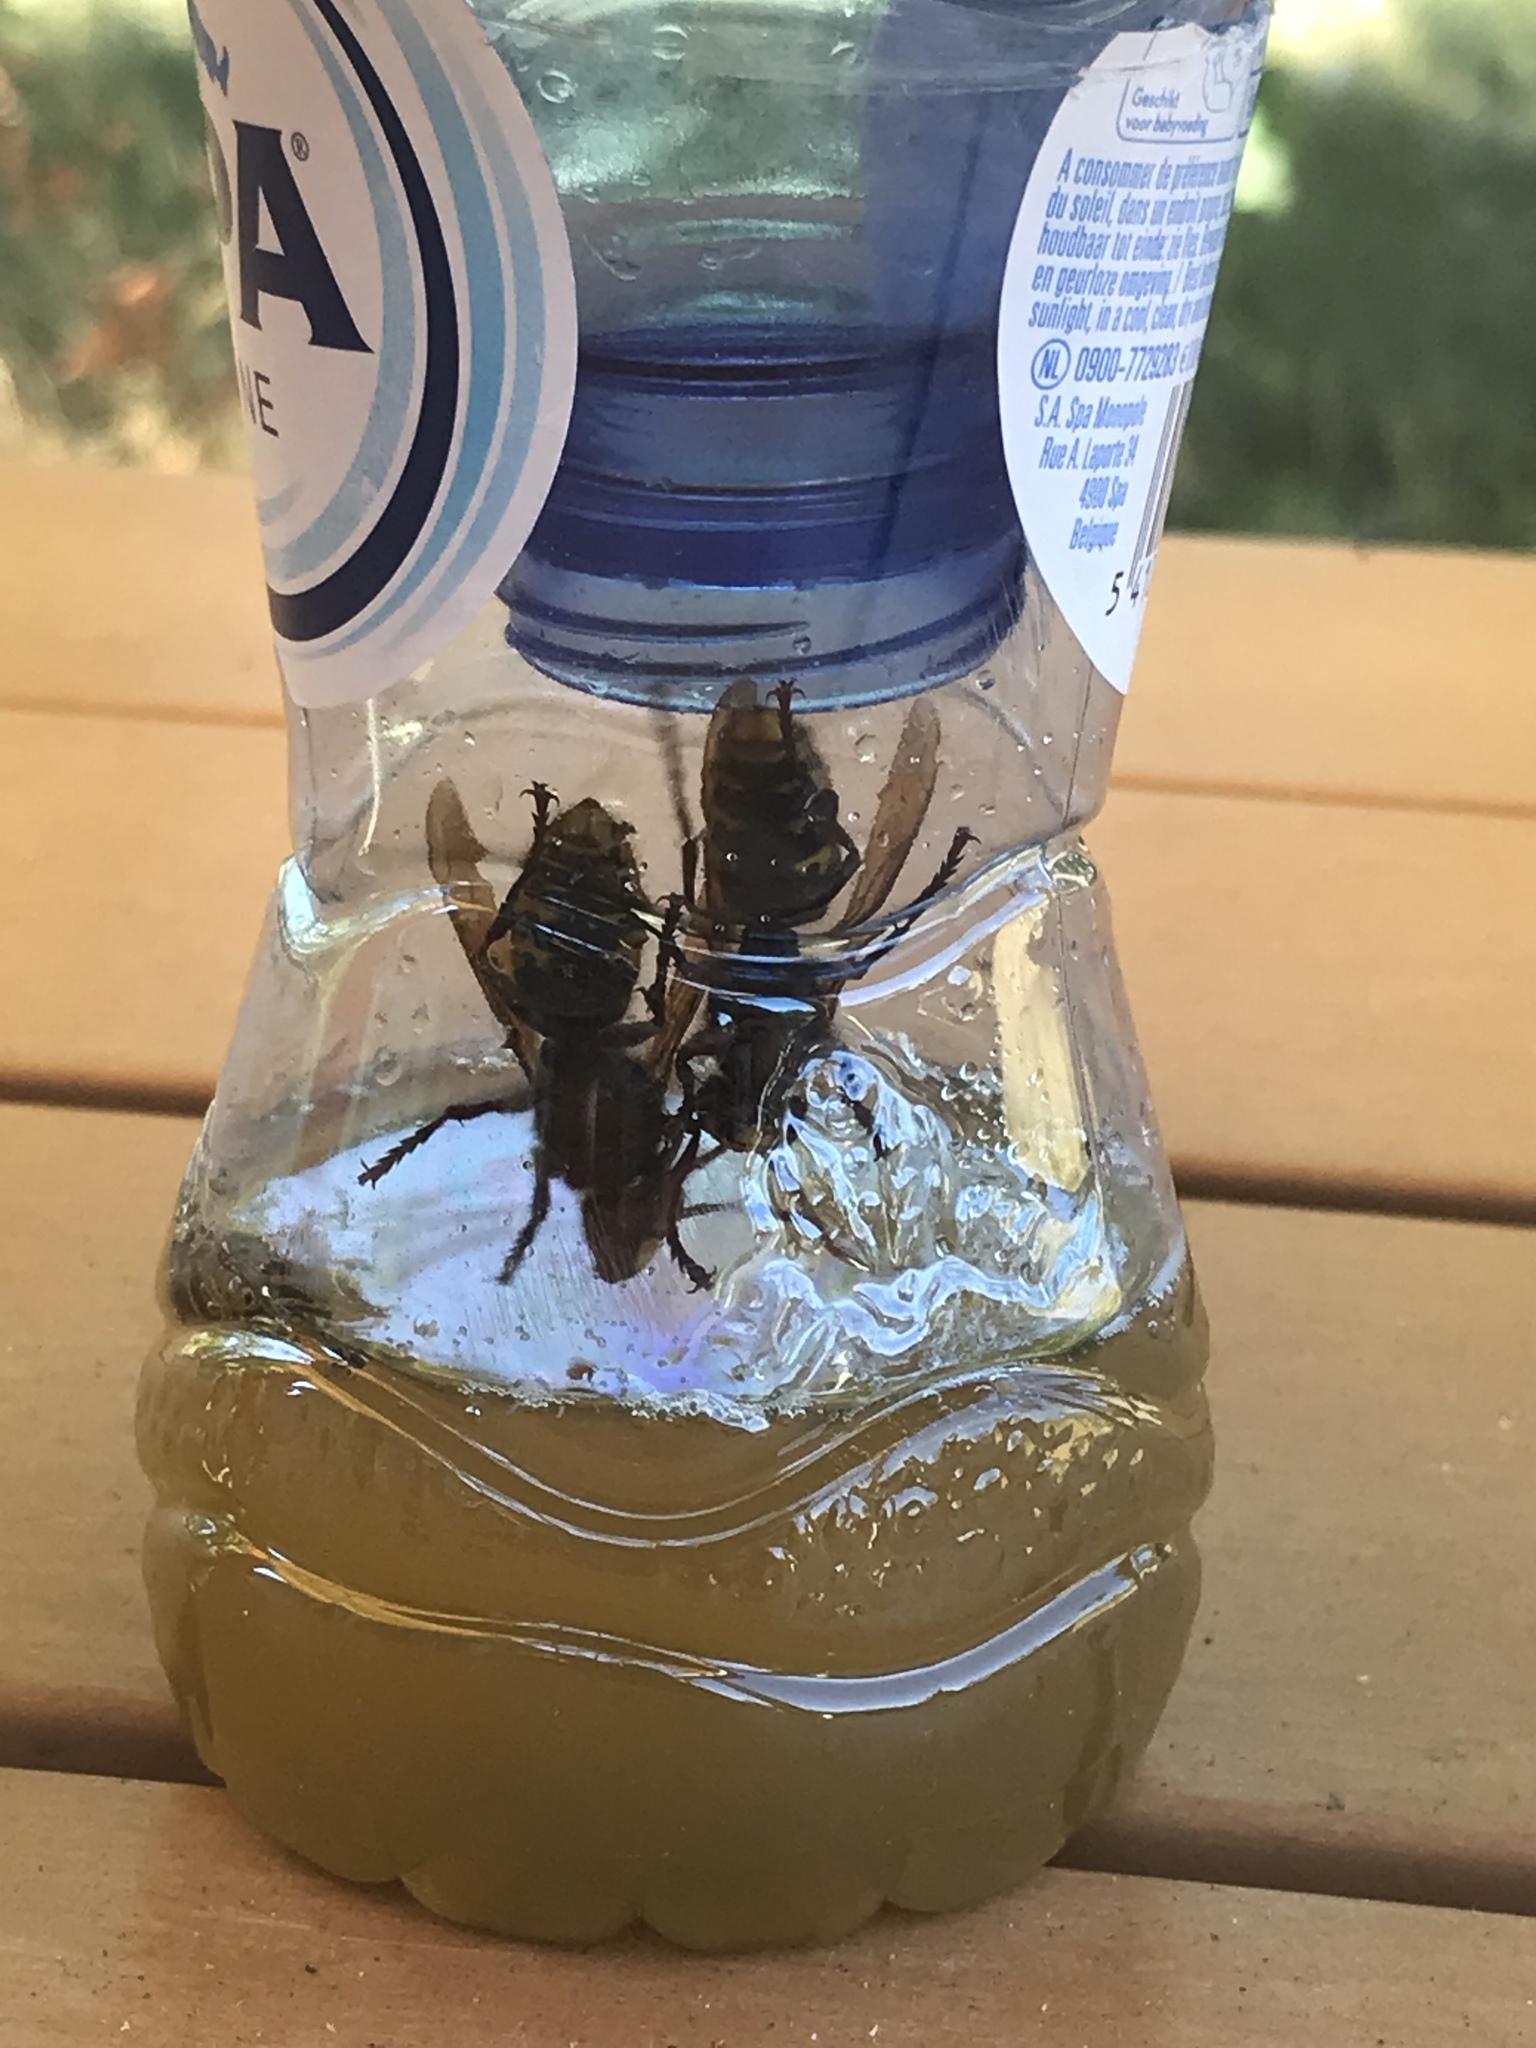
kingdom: Animalia
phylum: Arthropoda
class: Insecta
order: Hymenoptera
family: Vespidae
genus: Vespa
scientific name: Vespa crabro
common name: Hornet
